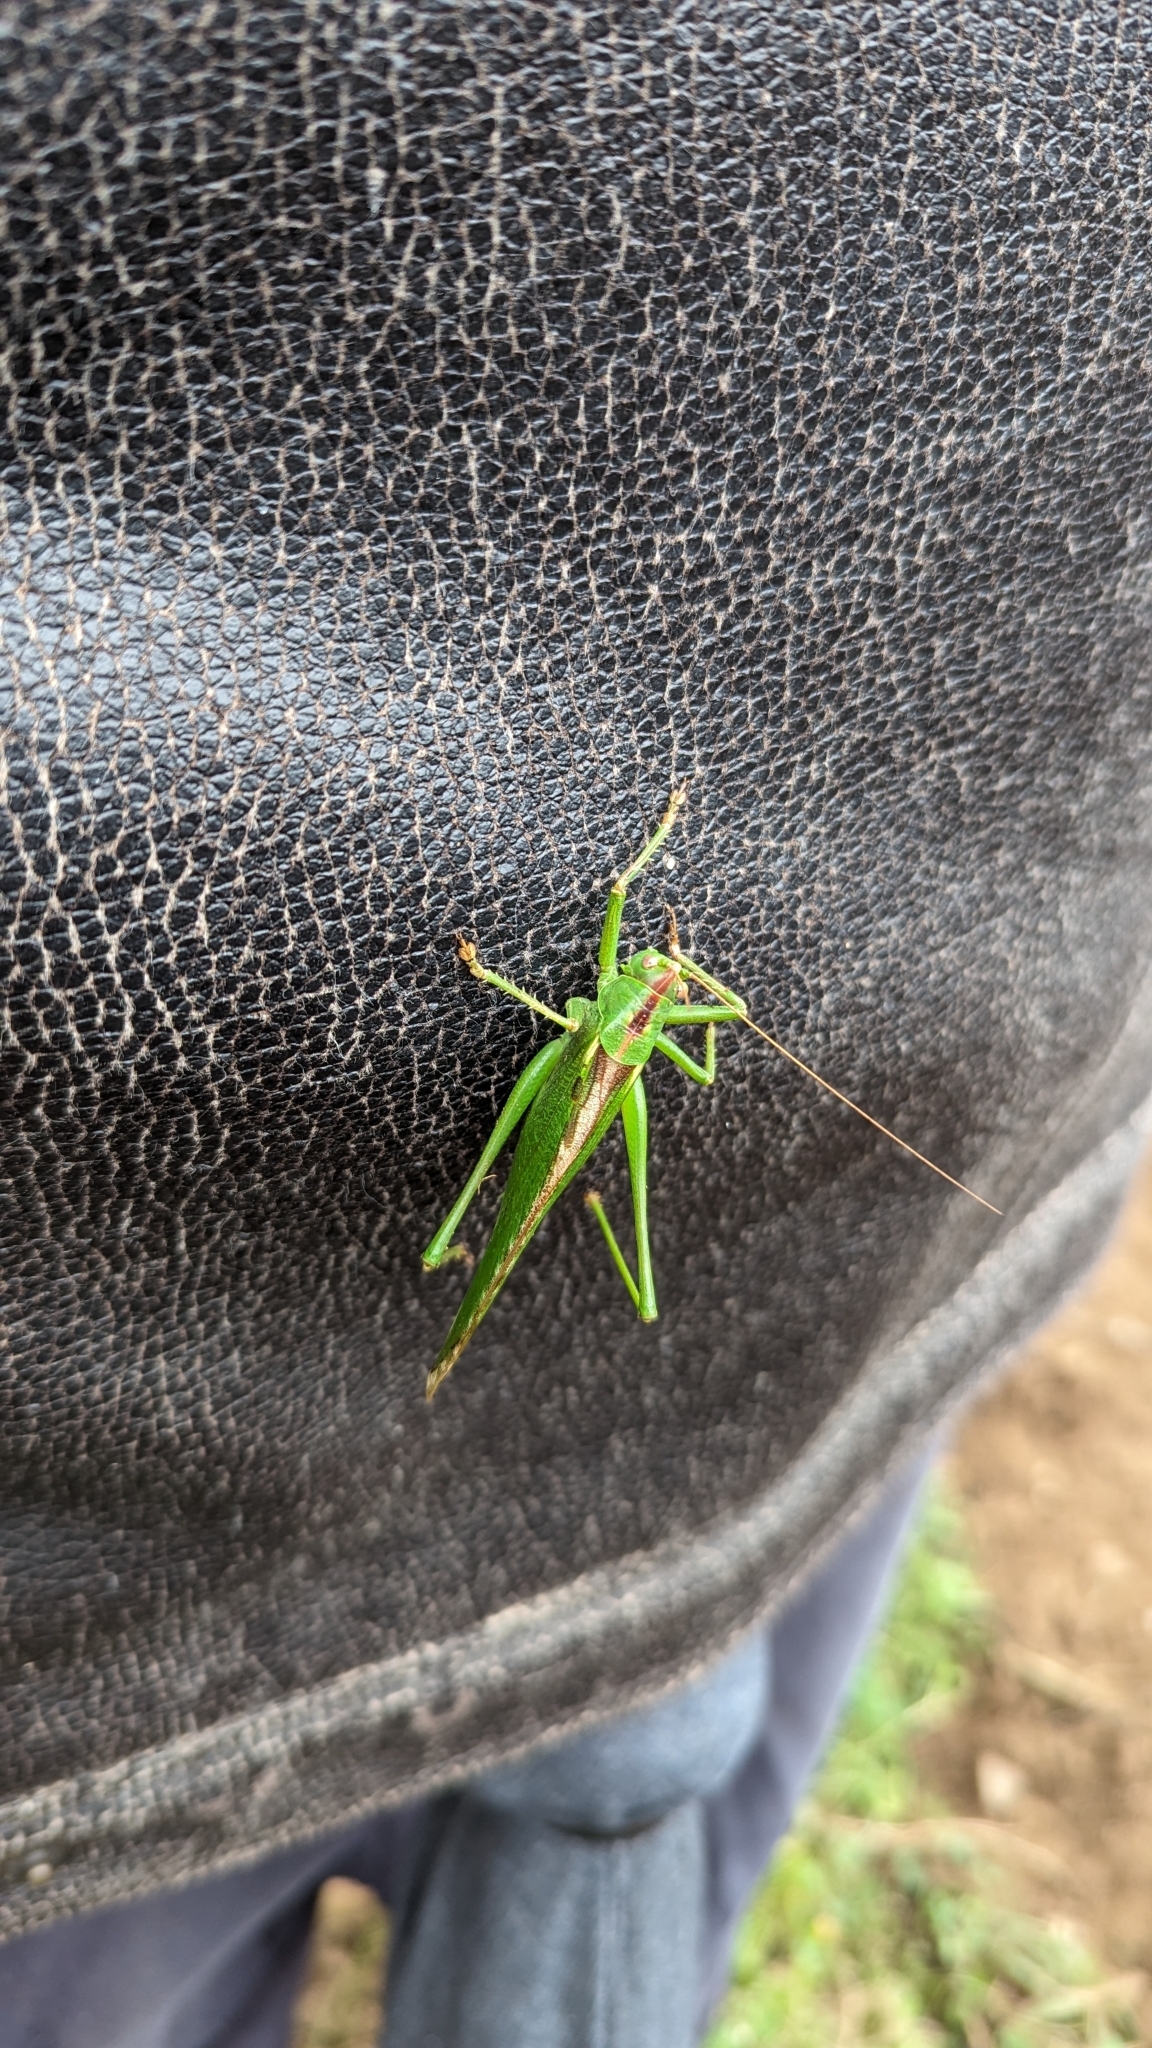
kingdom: Animalia
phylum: Arthropoda
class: Insecta
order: Orthoptera
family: Tettigoniidae
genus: Tettigonia
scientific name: Tettigonia viridissima
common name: Great green bush-cricket
